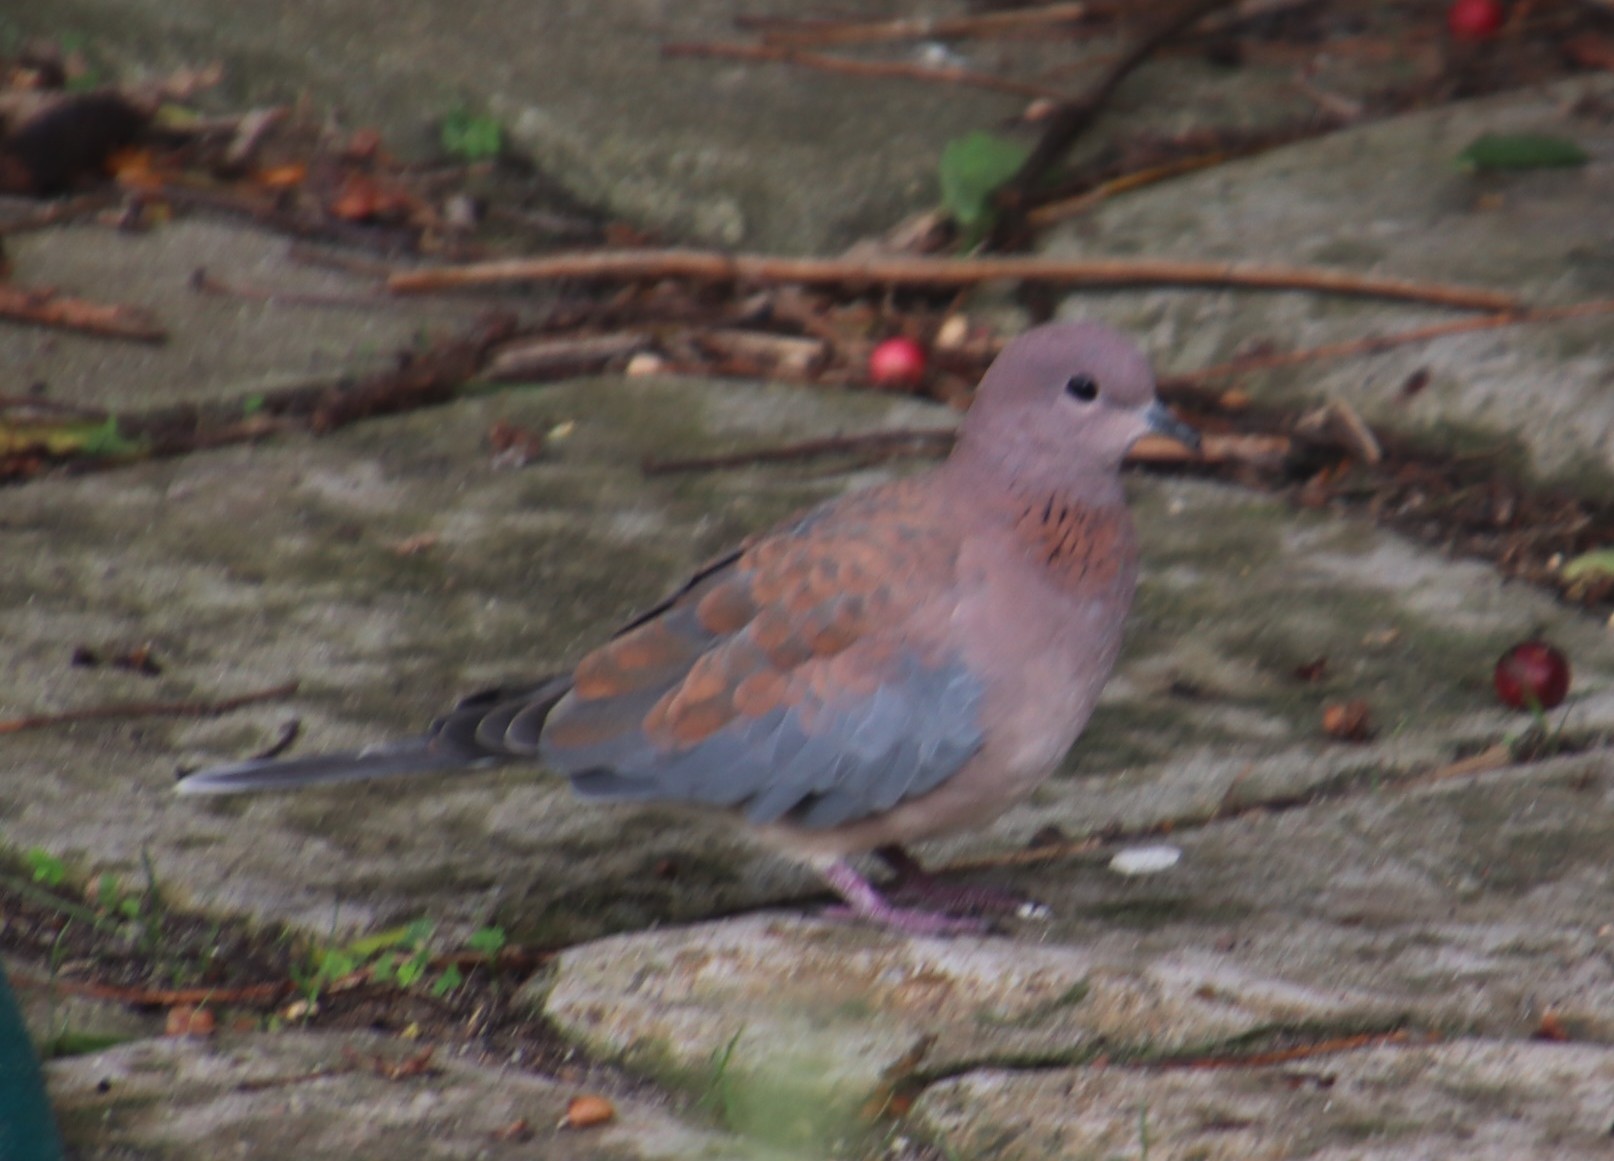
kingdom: Animalia
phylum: Chordata
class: Aves
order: Columbiformes
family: Columbidae
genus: Spilopelia
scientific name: Spilopelia senegalensis
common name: Laughing dove
